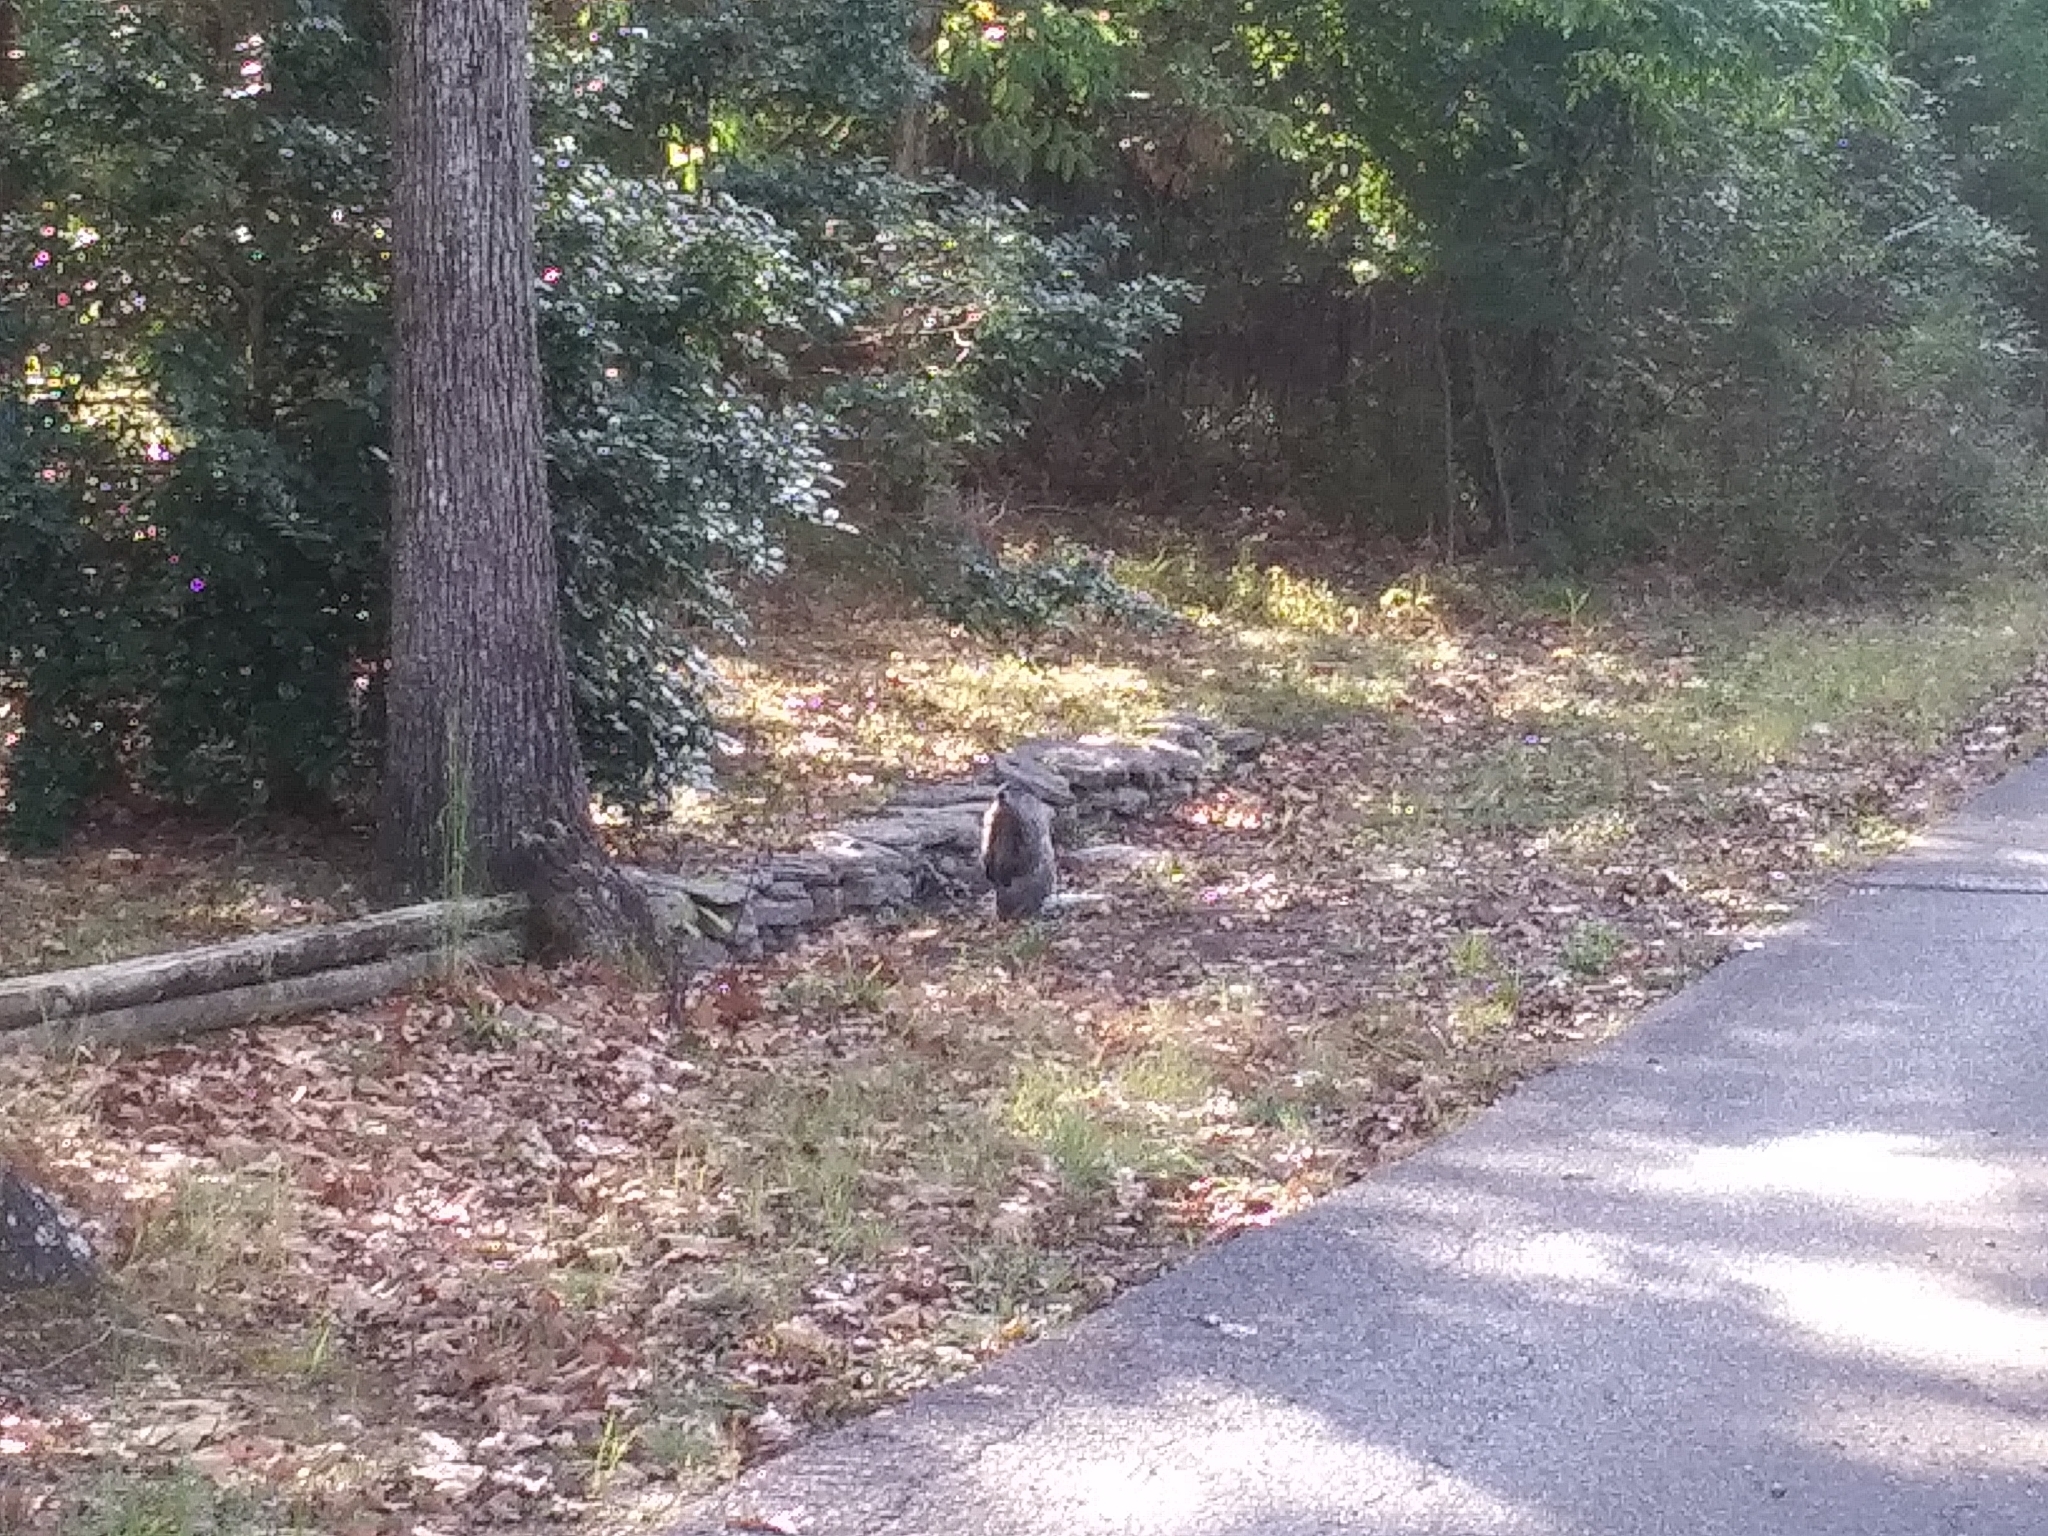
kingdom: Animalia
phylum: Chordata
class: Mammalia
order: Rodentia
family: Sciuridae
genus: Marmota
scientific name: Marmota monax
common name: Groundhog
